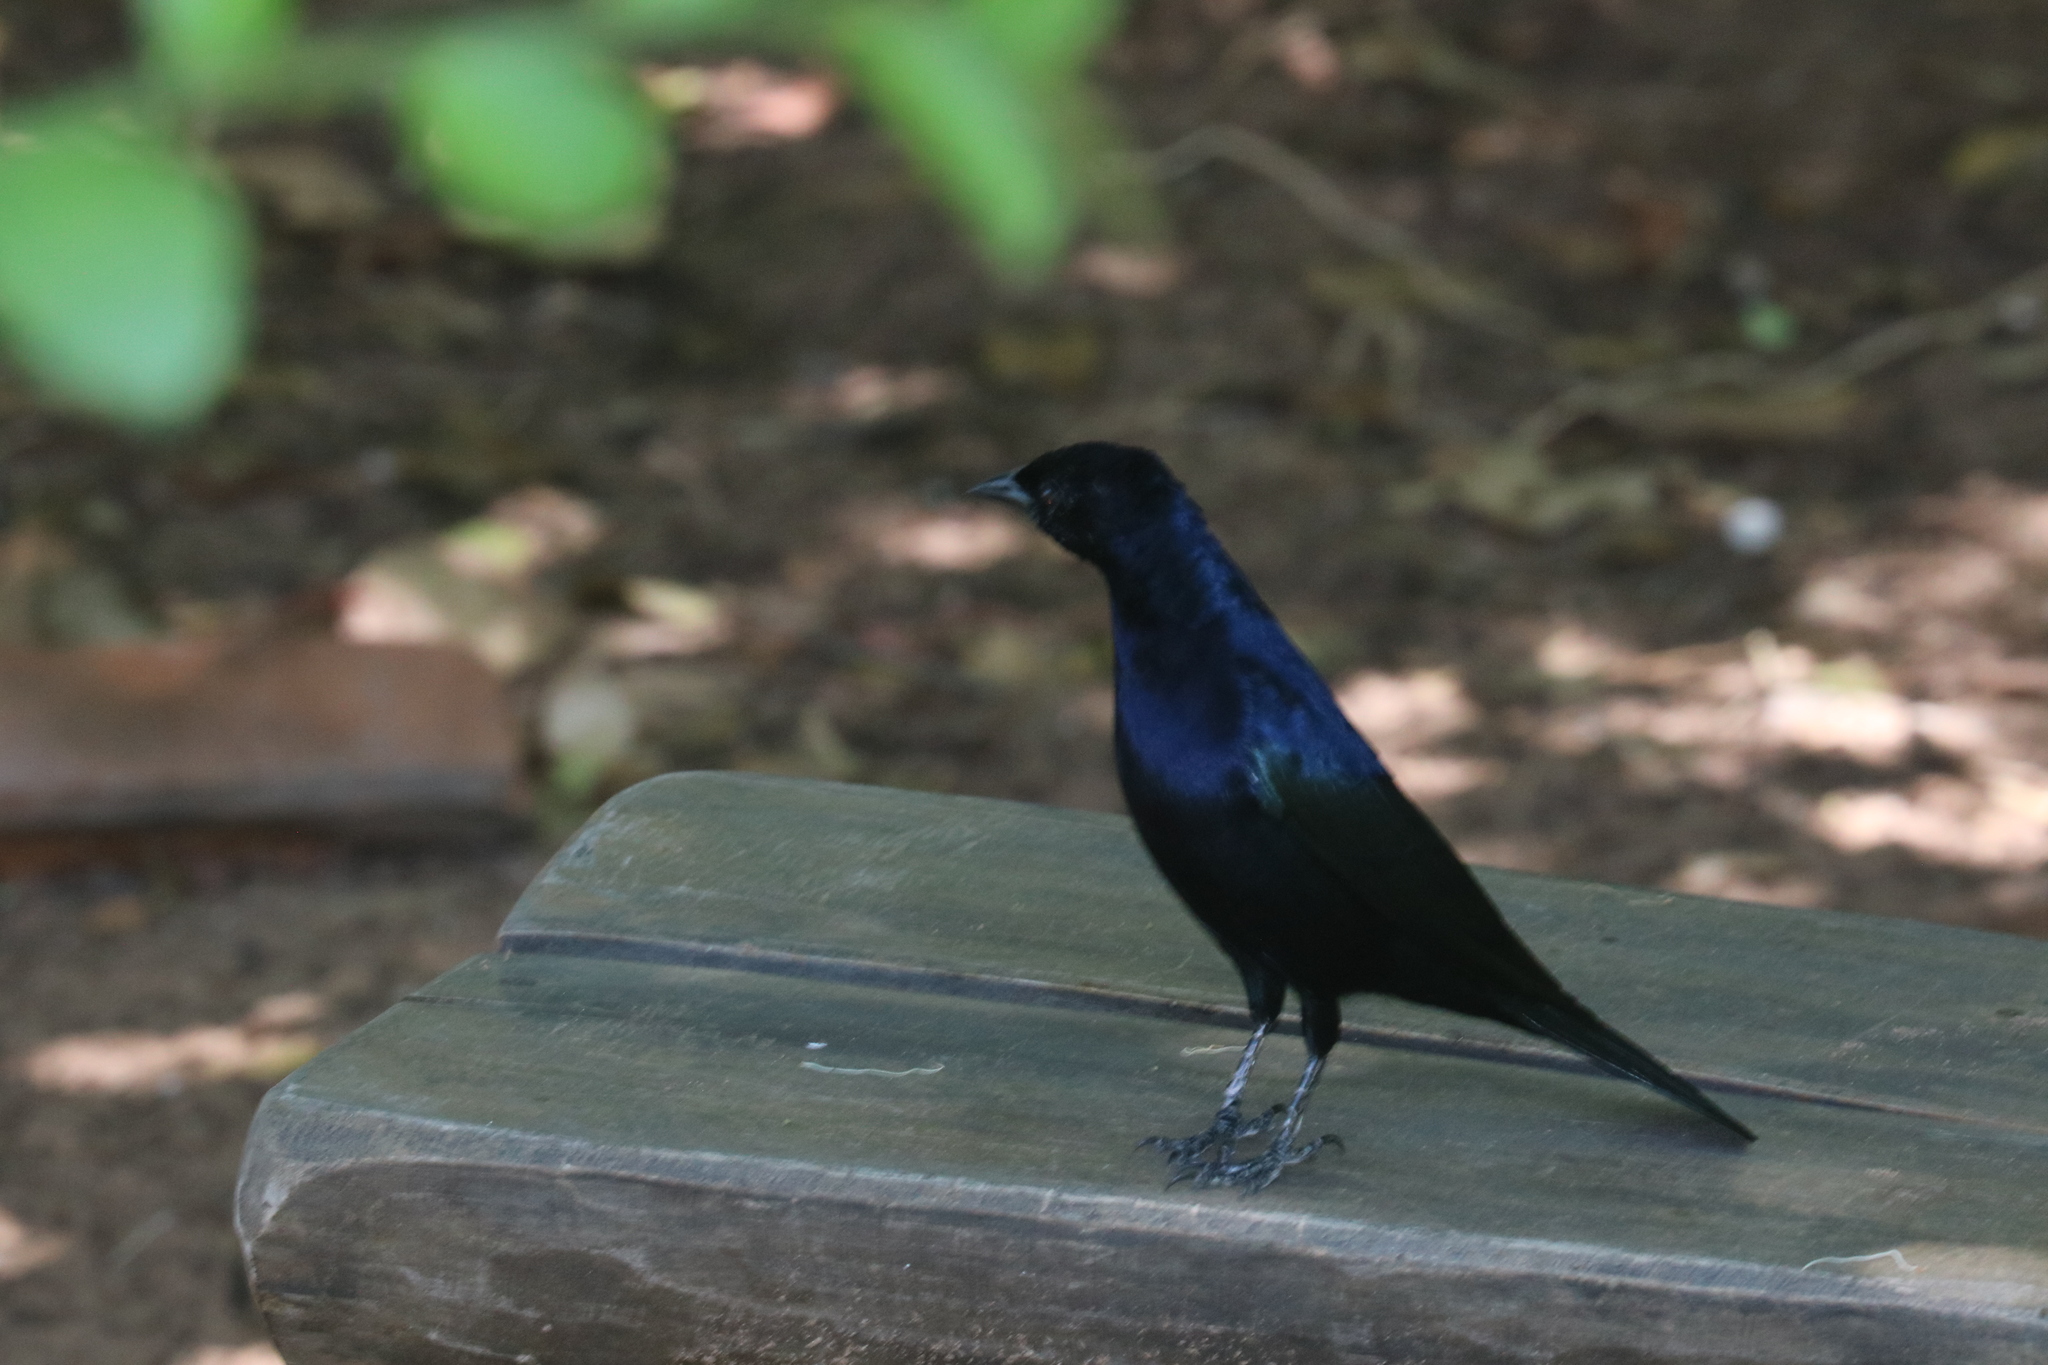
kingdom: Animalia
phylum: Chordata
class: Aves
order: Passeriformes
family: Icteridae
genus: Molothrus
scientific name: Molothrus bonariensis
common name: Shiny cowbird
